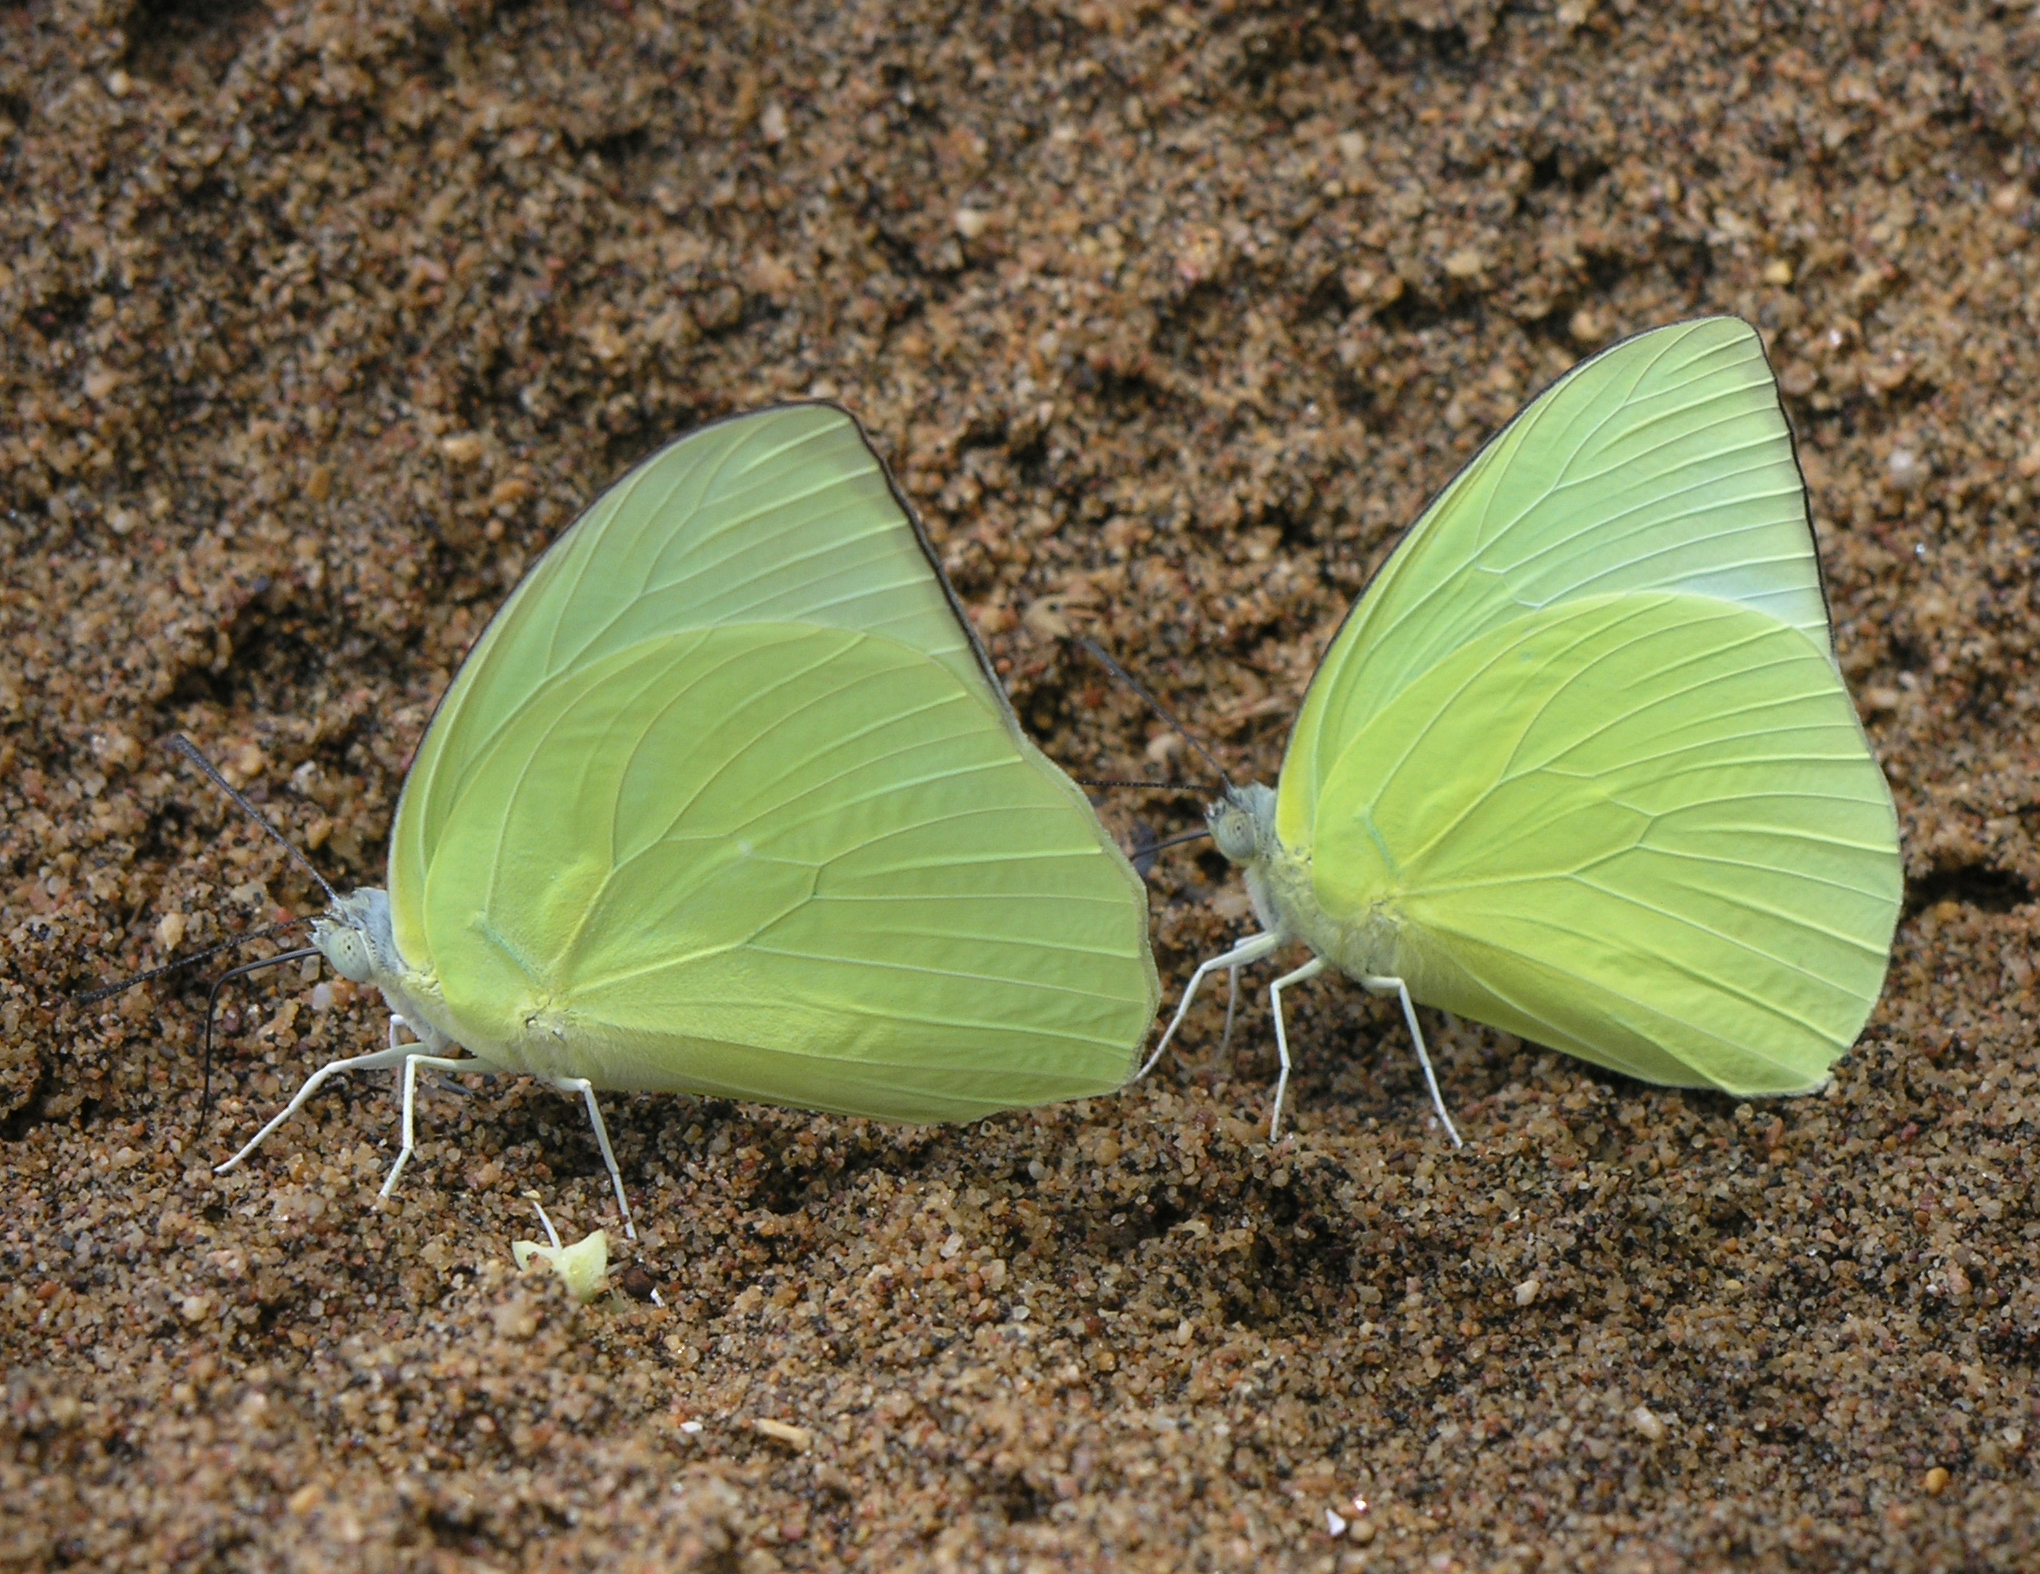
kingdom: Animalia
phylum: Arthropoda
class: Insecta
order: Lepidoptera
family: Pieridae
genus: Catopsilia
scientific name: Catopsilia pomona
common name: Common emigrant
